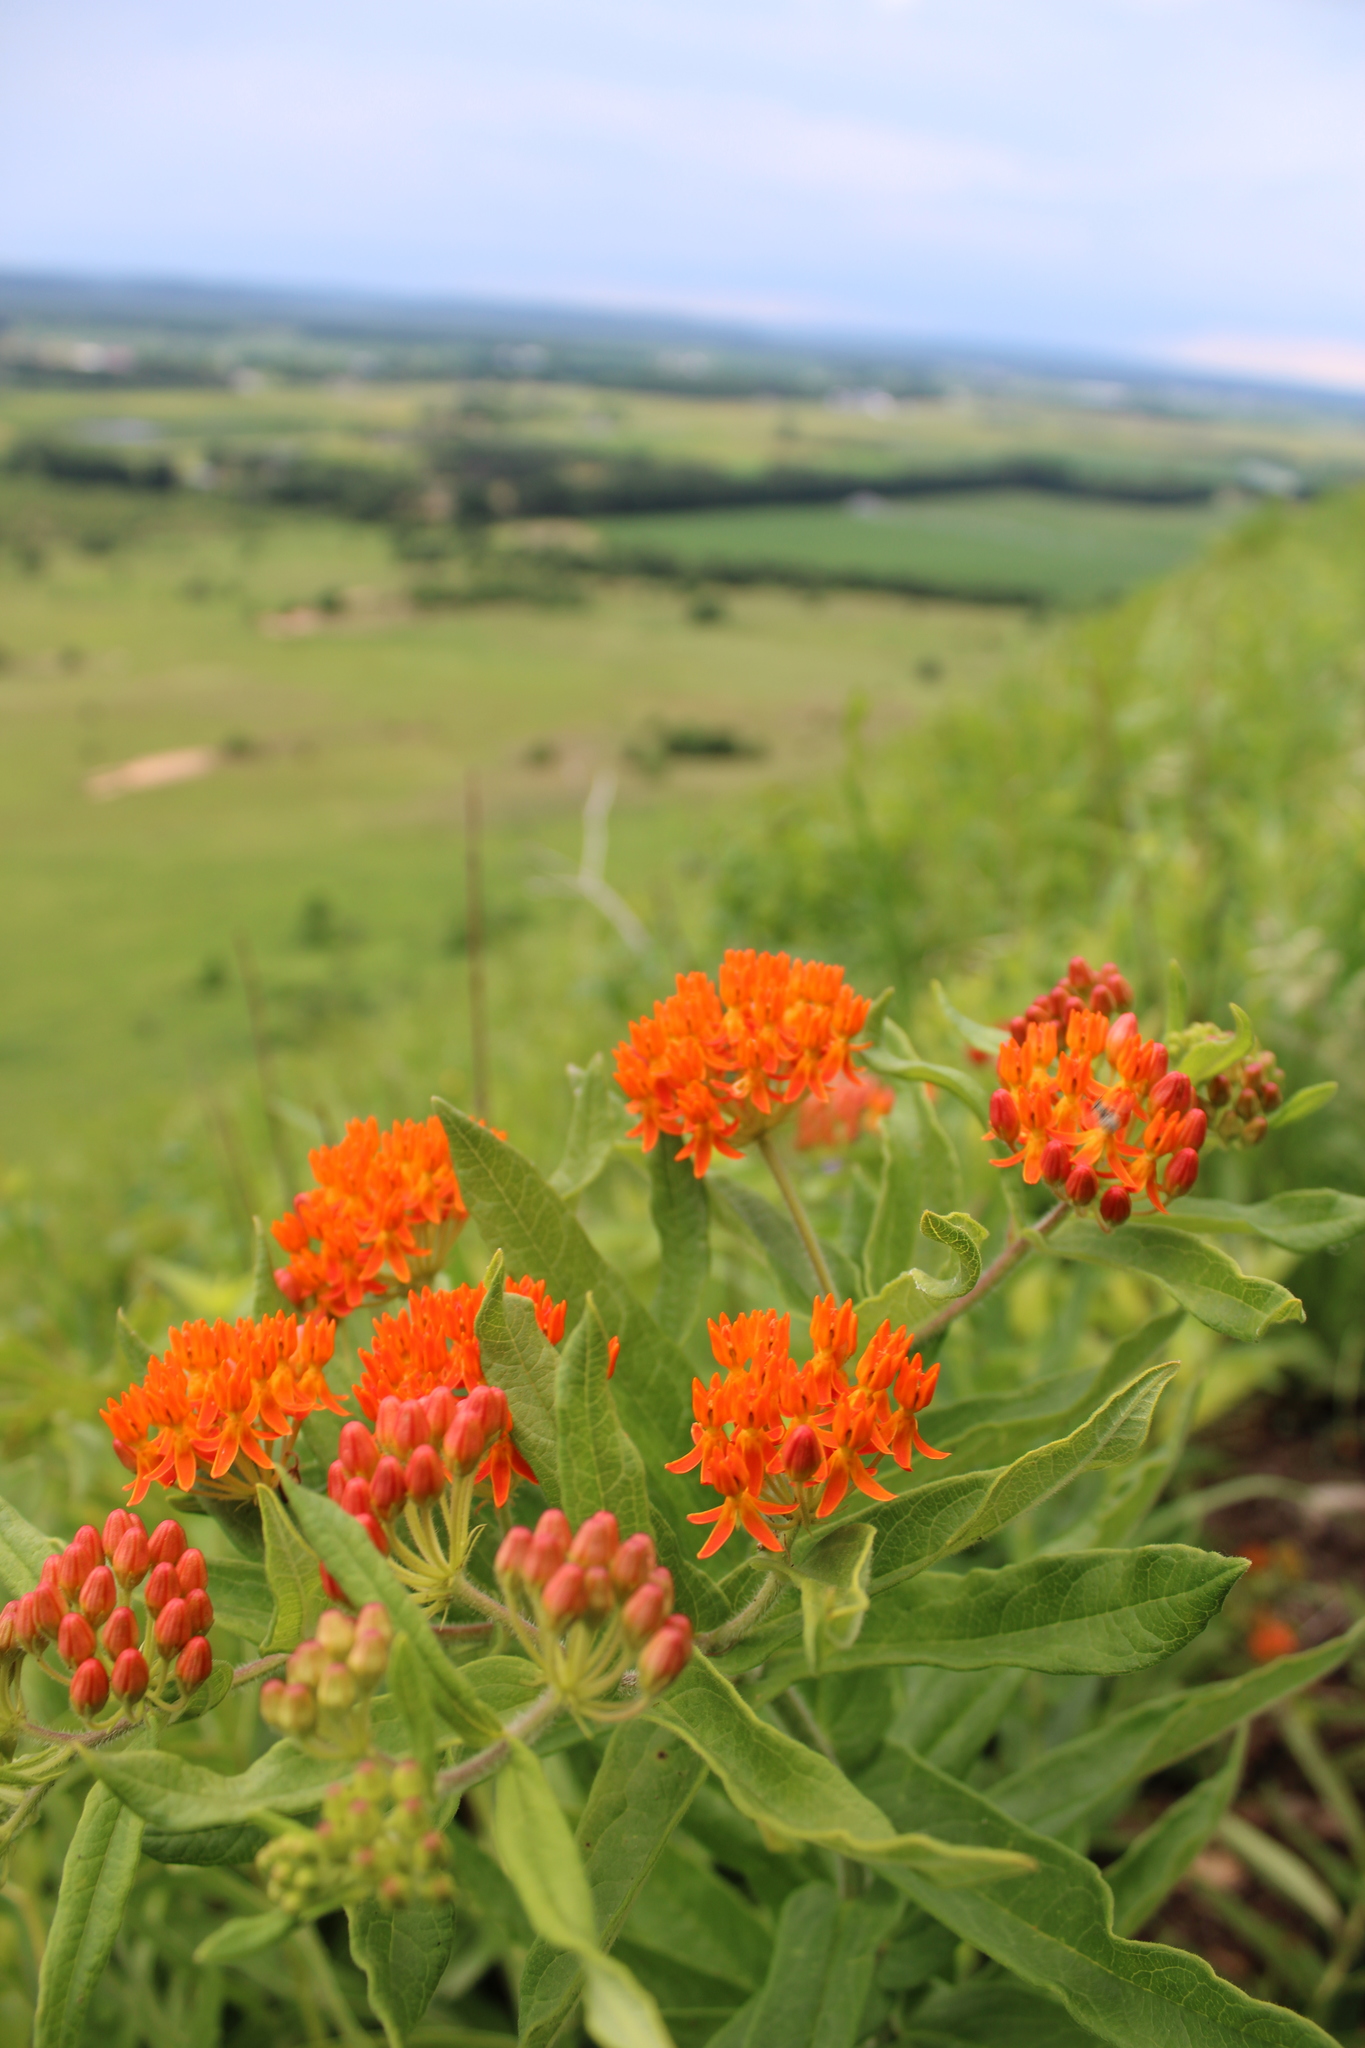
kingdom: Plantae
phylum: Tracheophyta
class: Magnoliopsida
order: Gentianales
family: Apocynaceae
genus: Asclepias
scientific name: Asclepias tuberosa
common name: Butterfly milkweed
